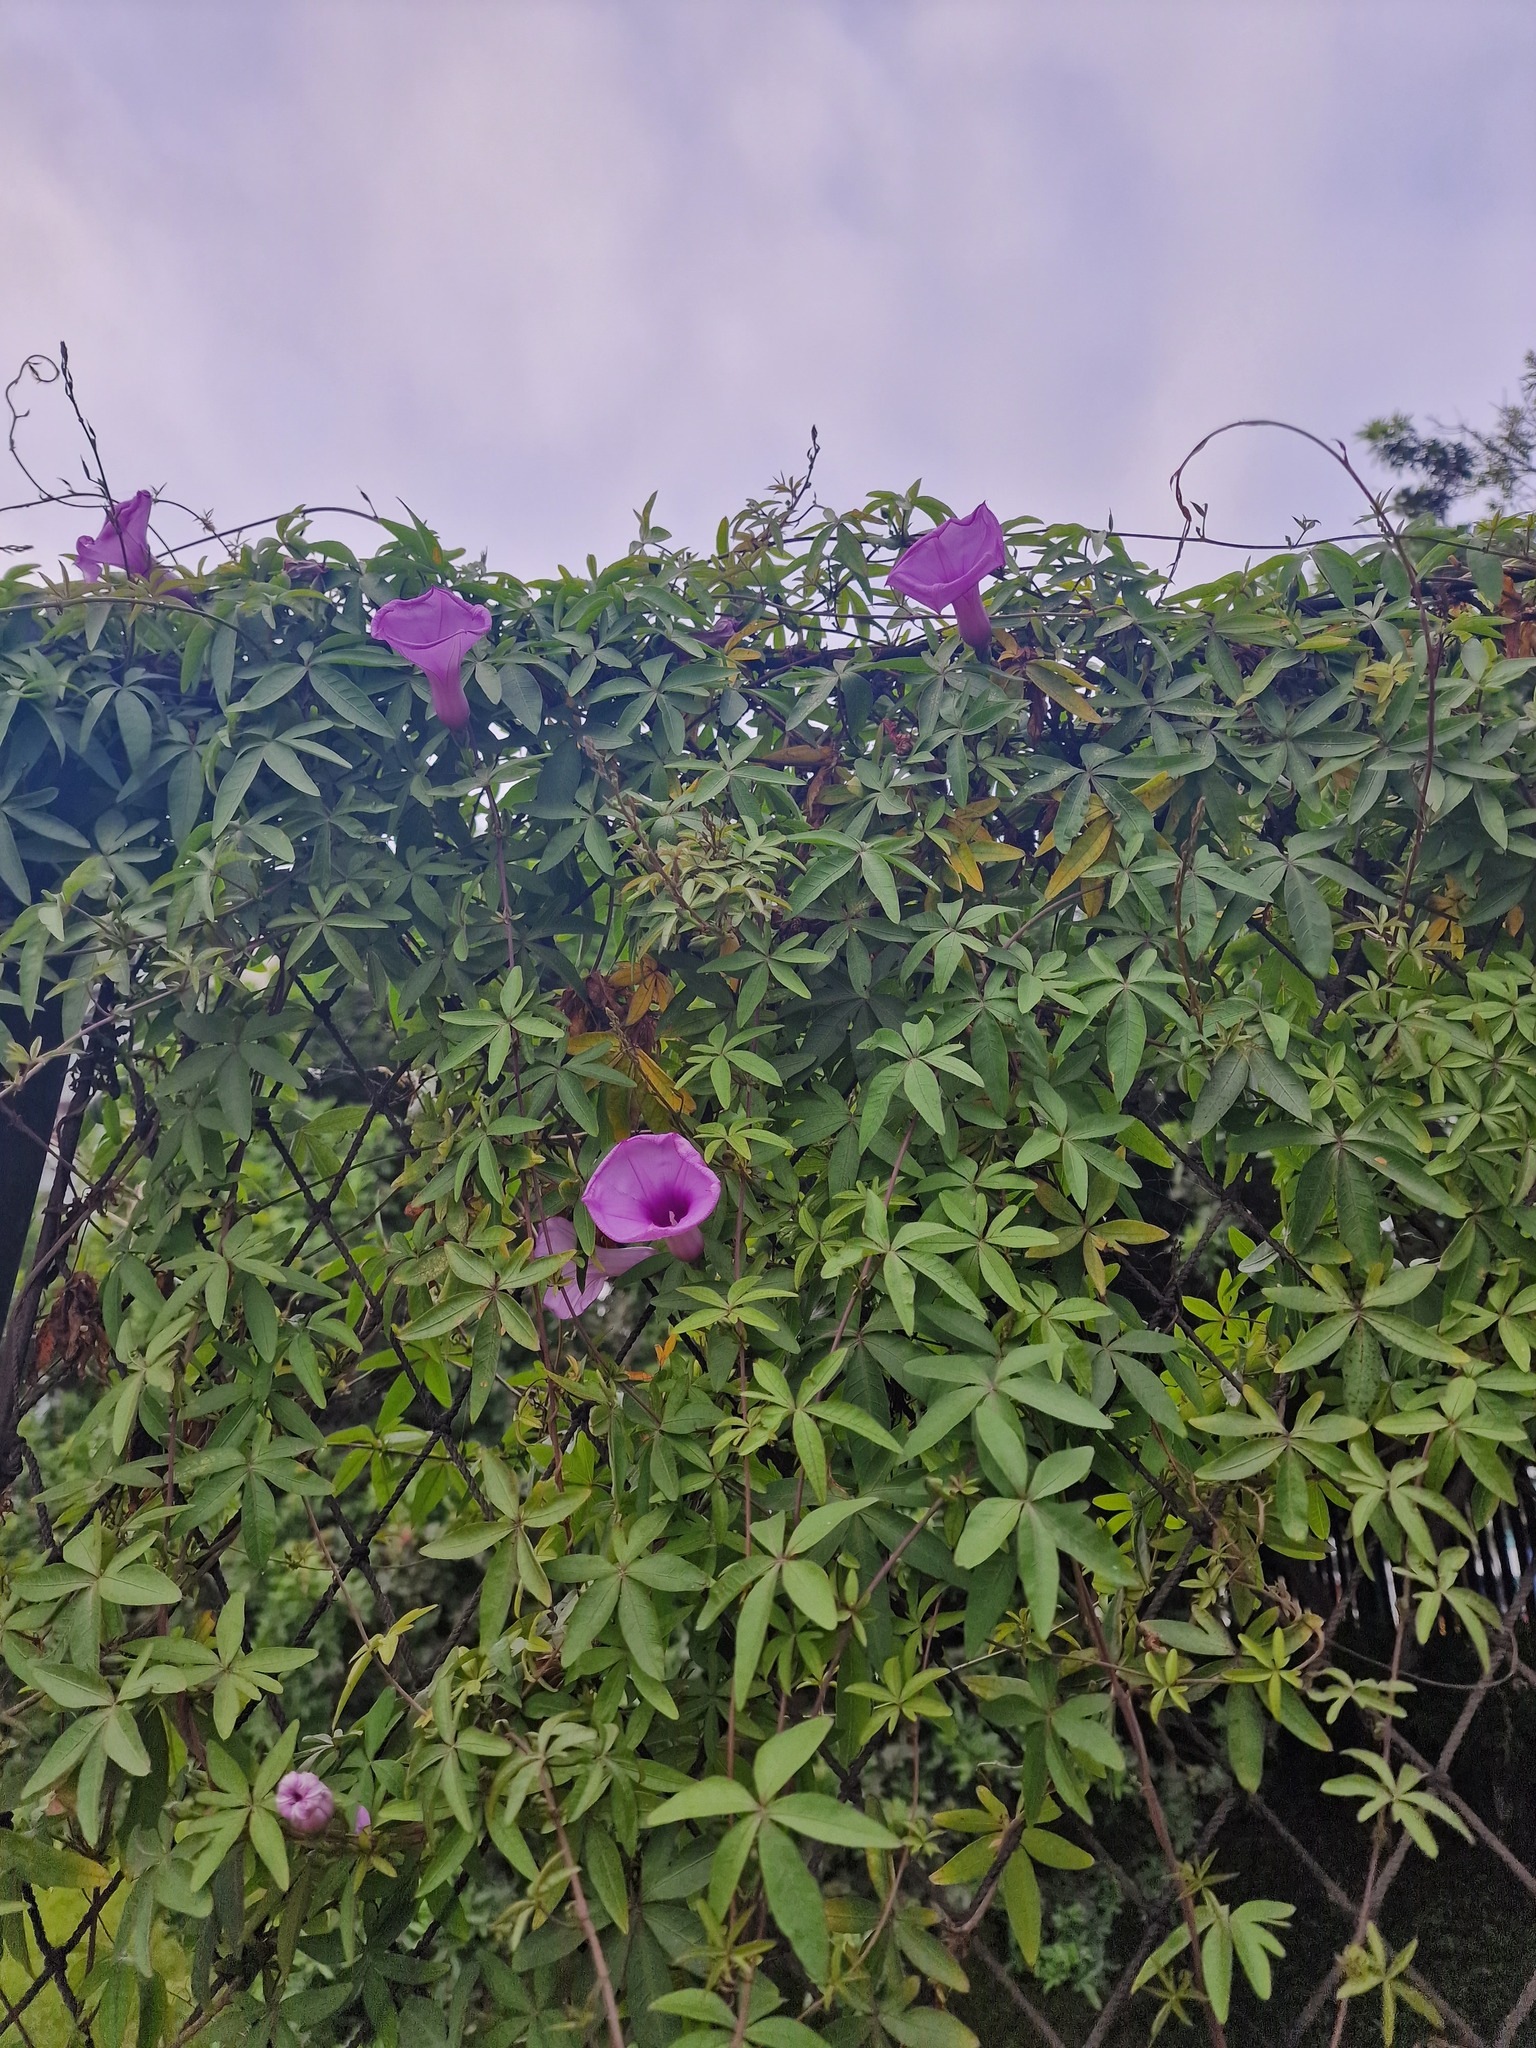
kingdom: Plantae
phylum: Tracheophyta
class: Magnoliopsida
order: Solanales
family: Convolvulaceae
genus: Ipomoea
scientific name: Ipomoea cairica
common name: Mile a minute vine
